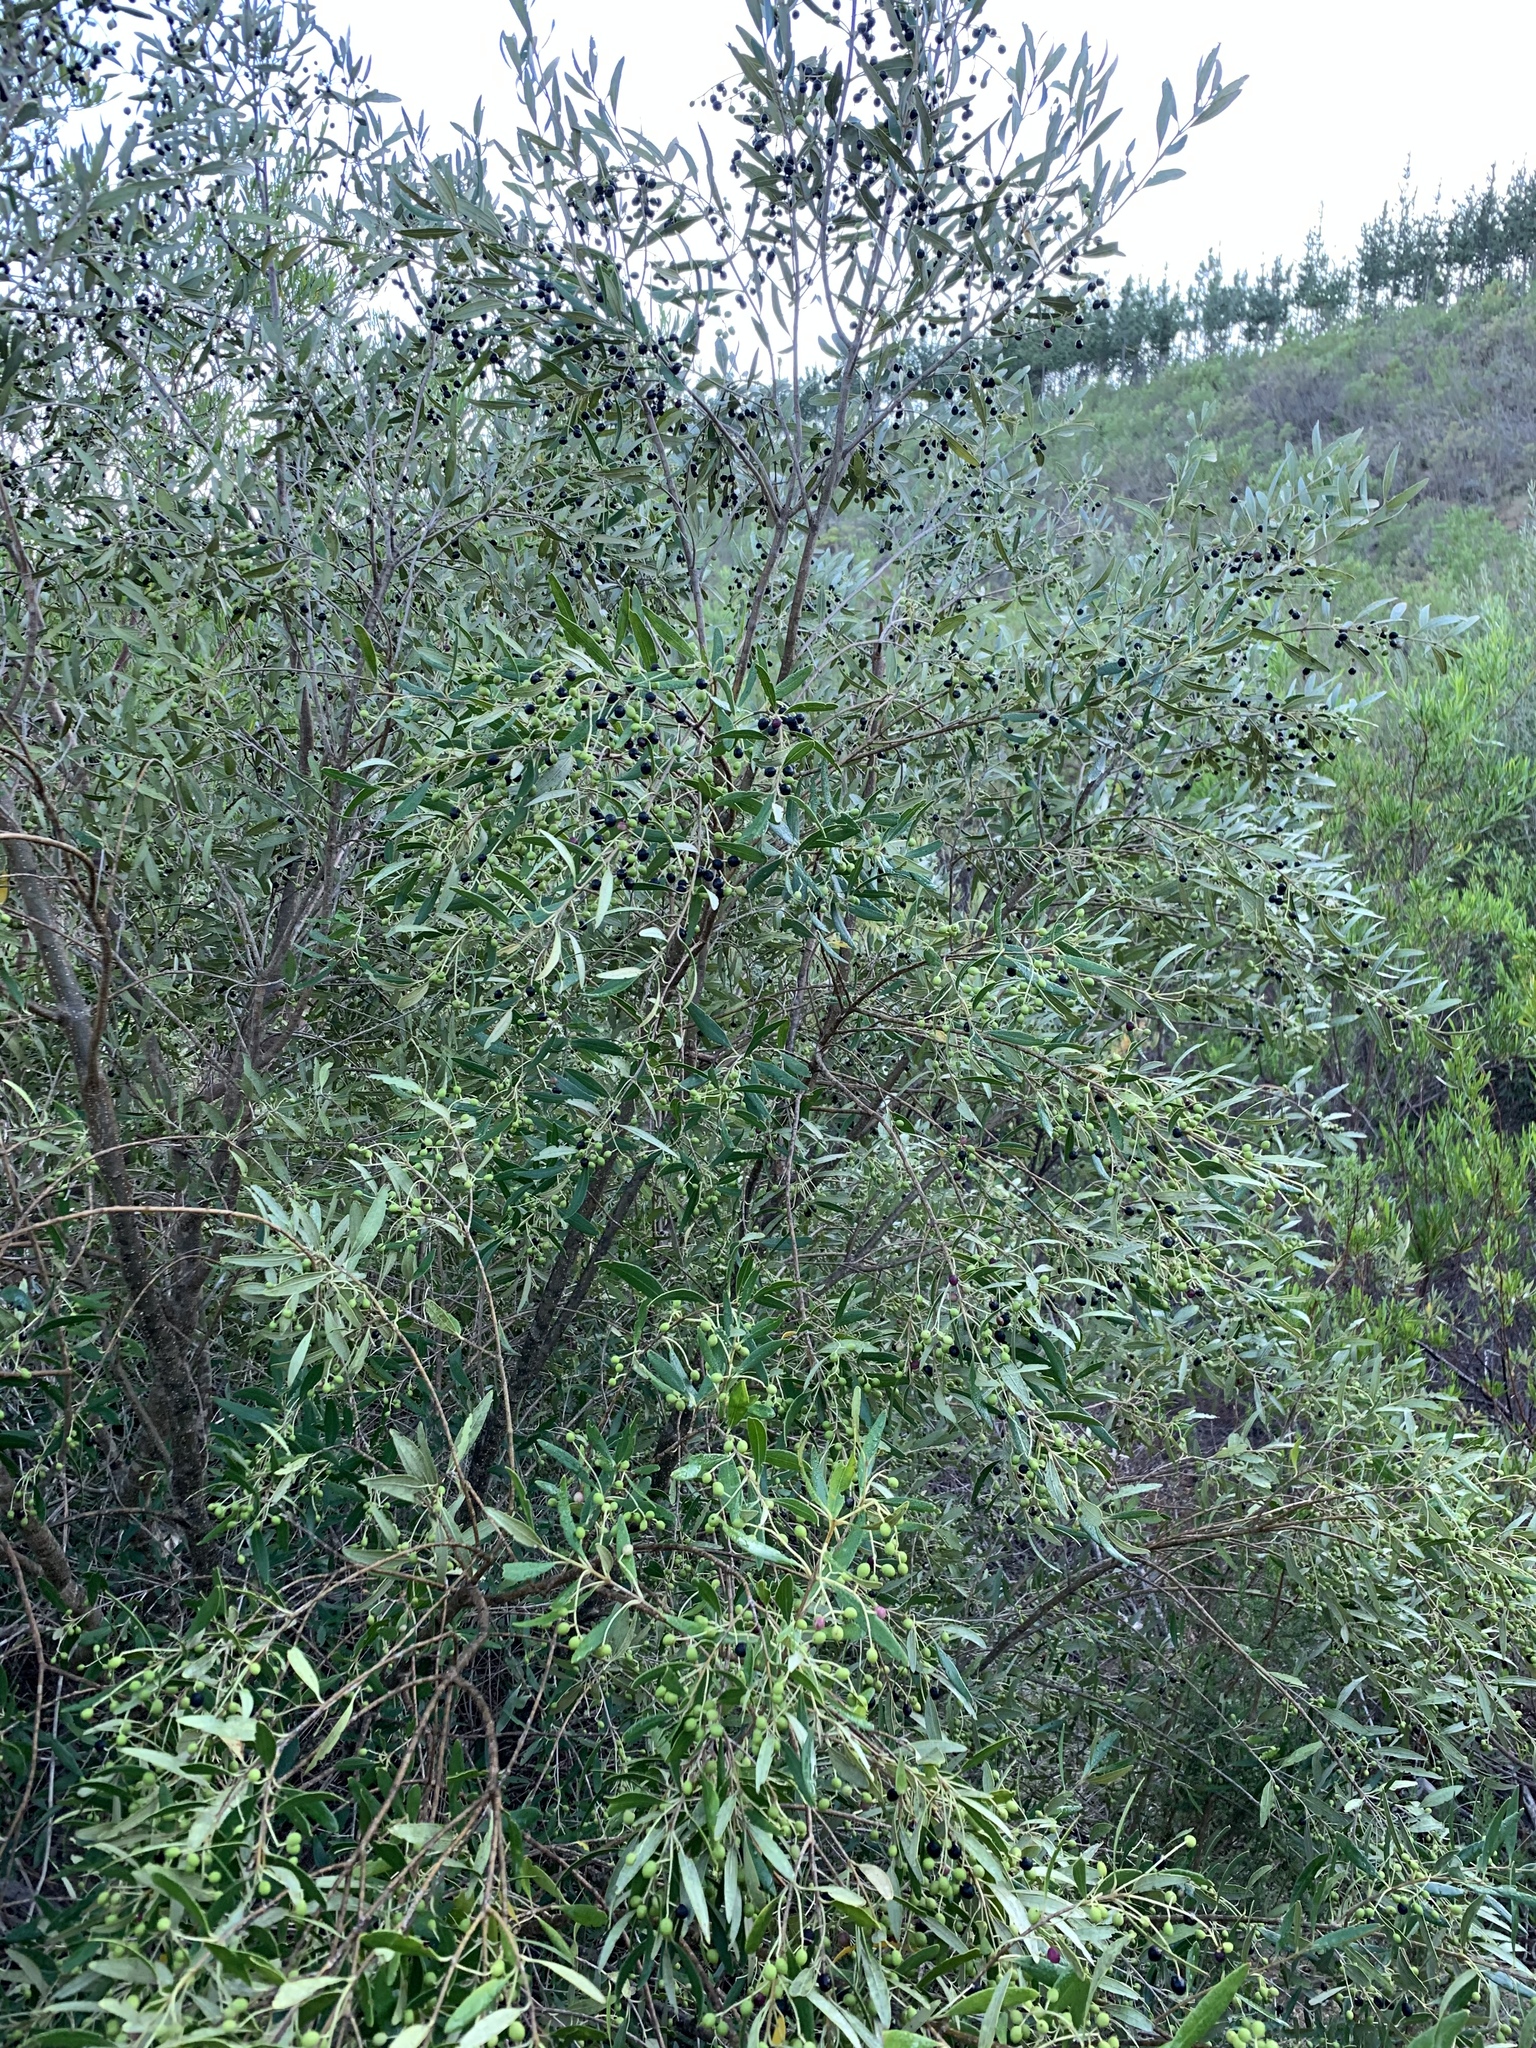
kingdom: Plantae
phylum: Tracheophyta
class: Magnoliopsida
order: Lamiales
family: Oleaceae
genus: Olea
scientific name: Olea europaea
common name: Olive
